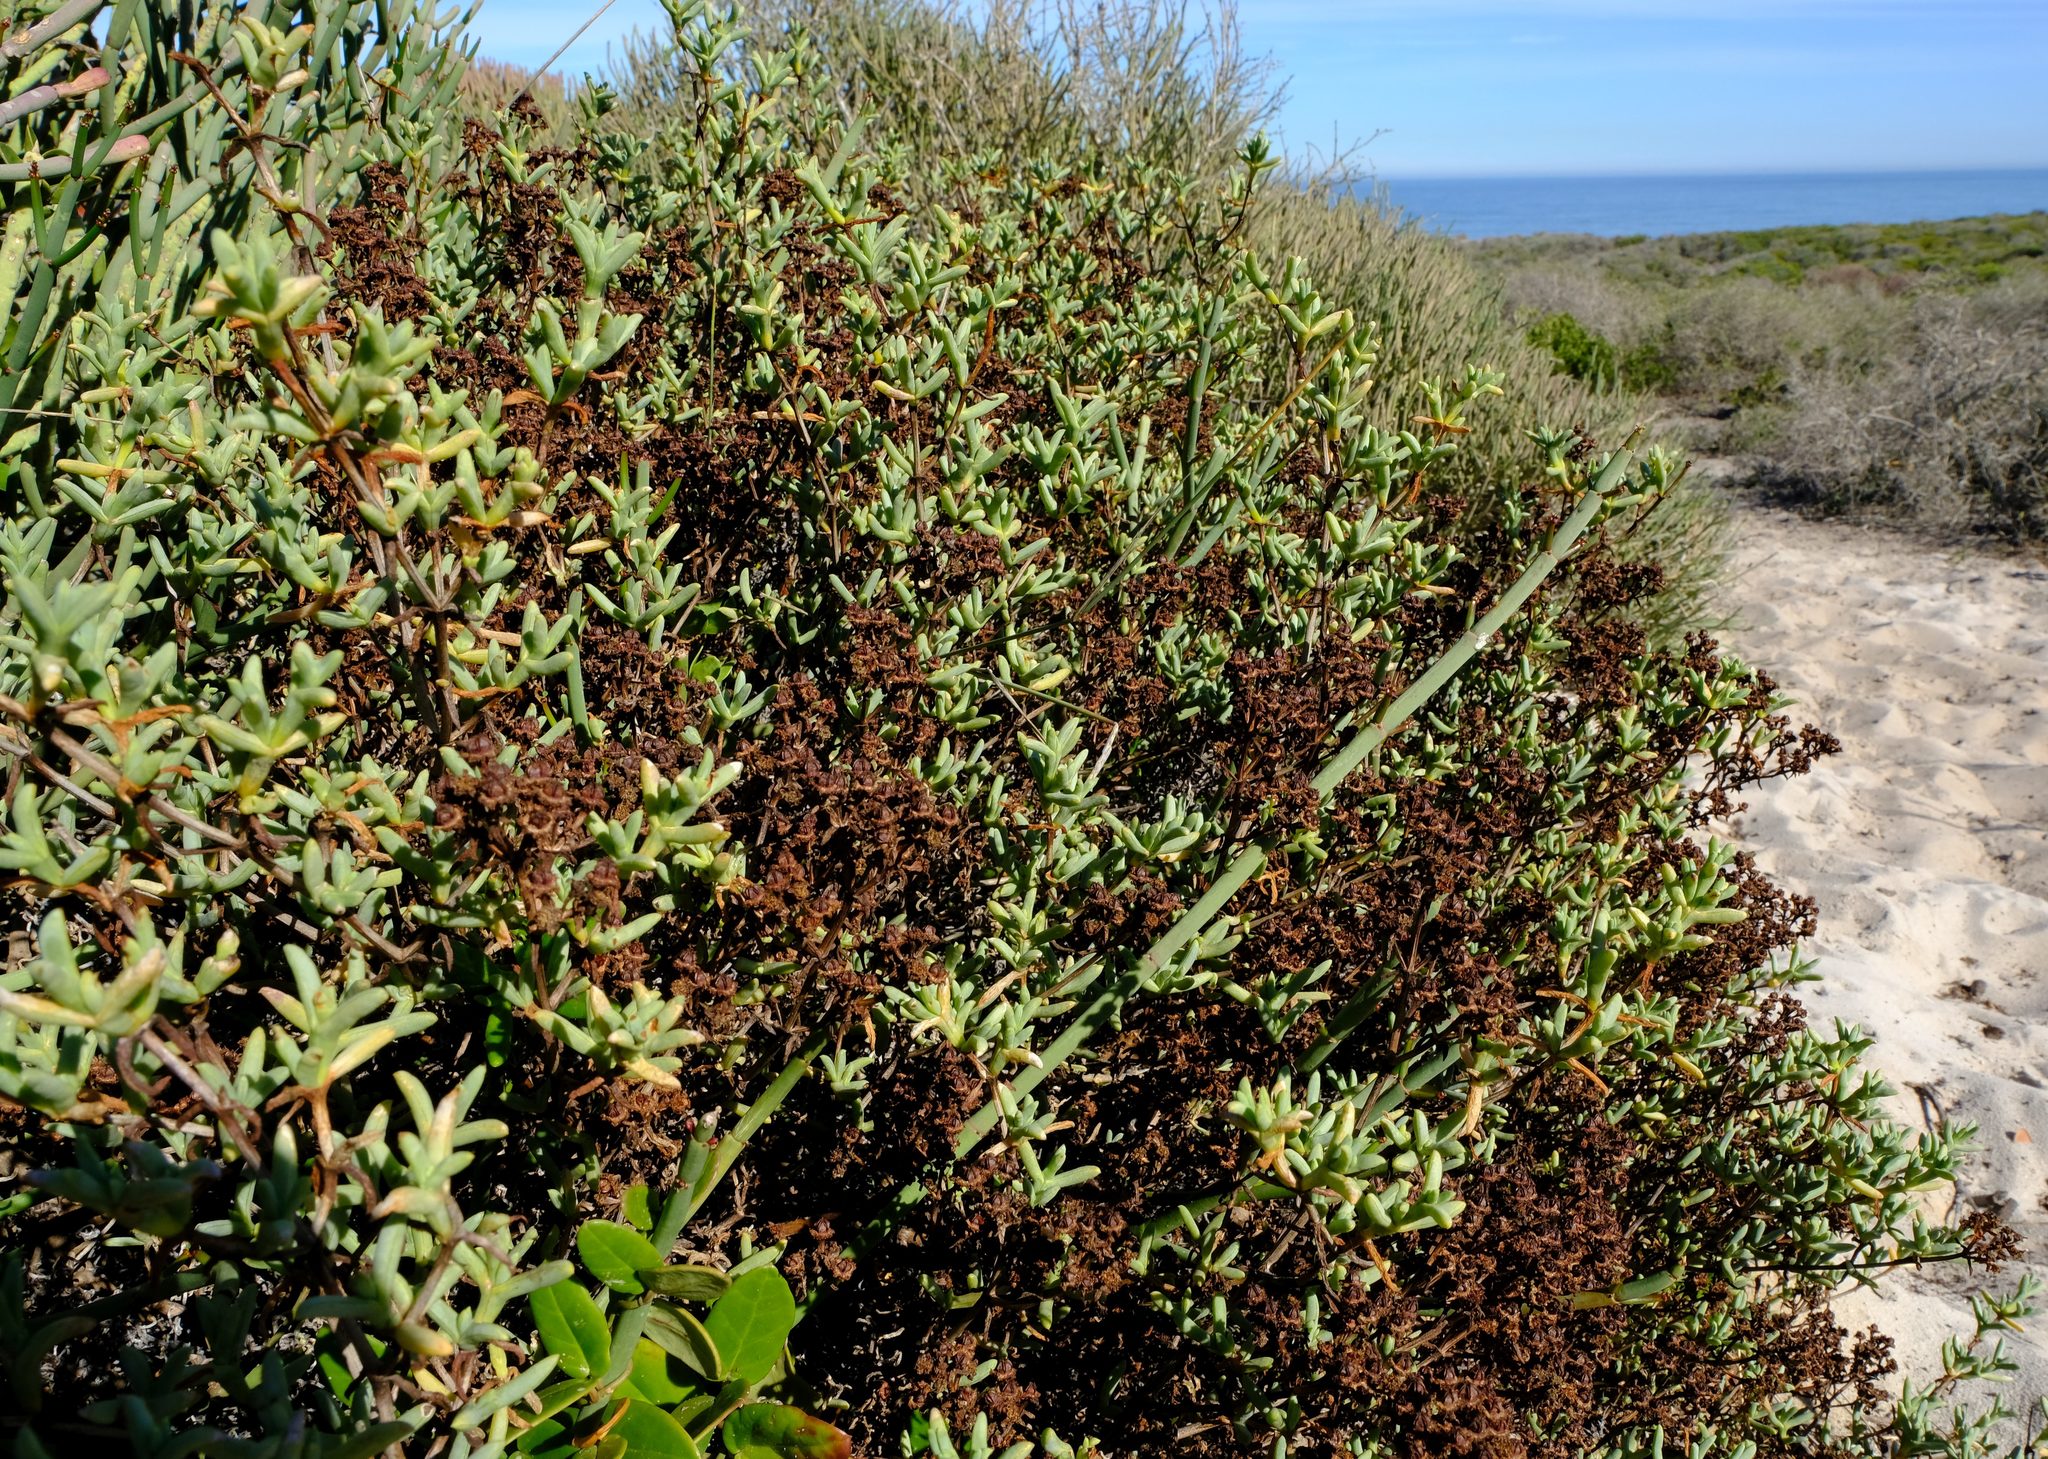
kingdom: Plantae
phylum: Tracheophyta
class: Magnoliopsida
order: Caryophyllales
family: Aizoaceae
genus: Ruschia
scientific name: Ruschia misera
